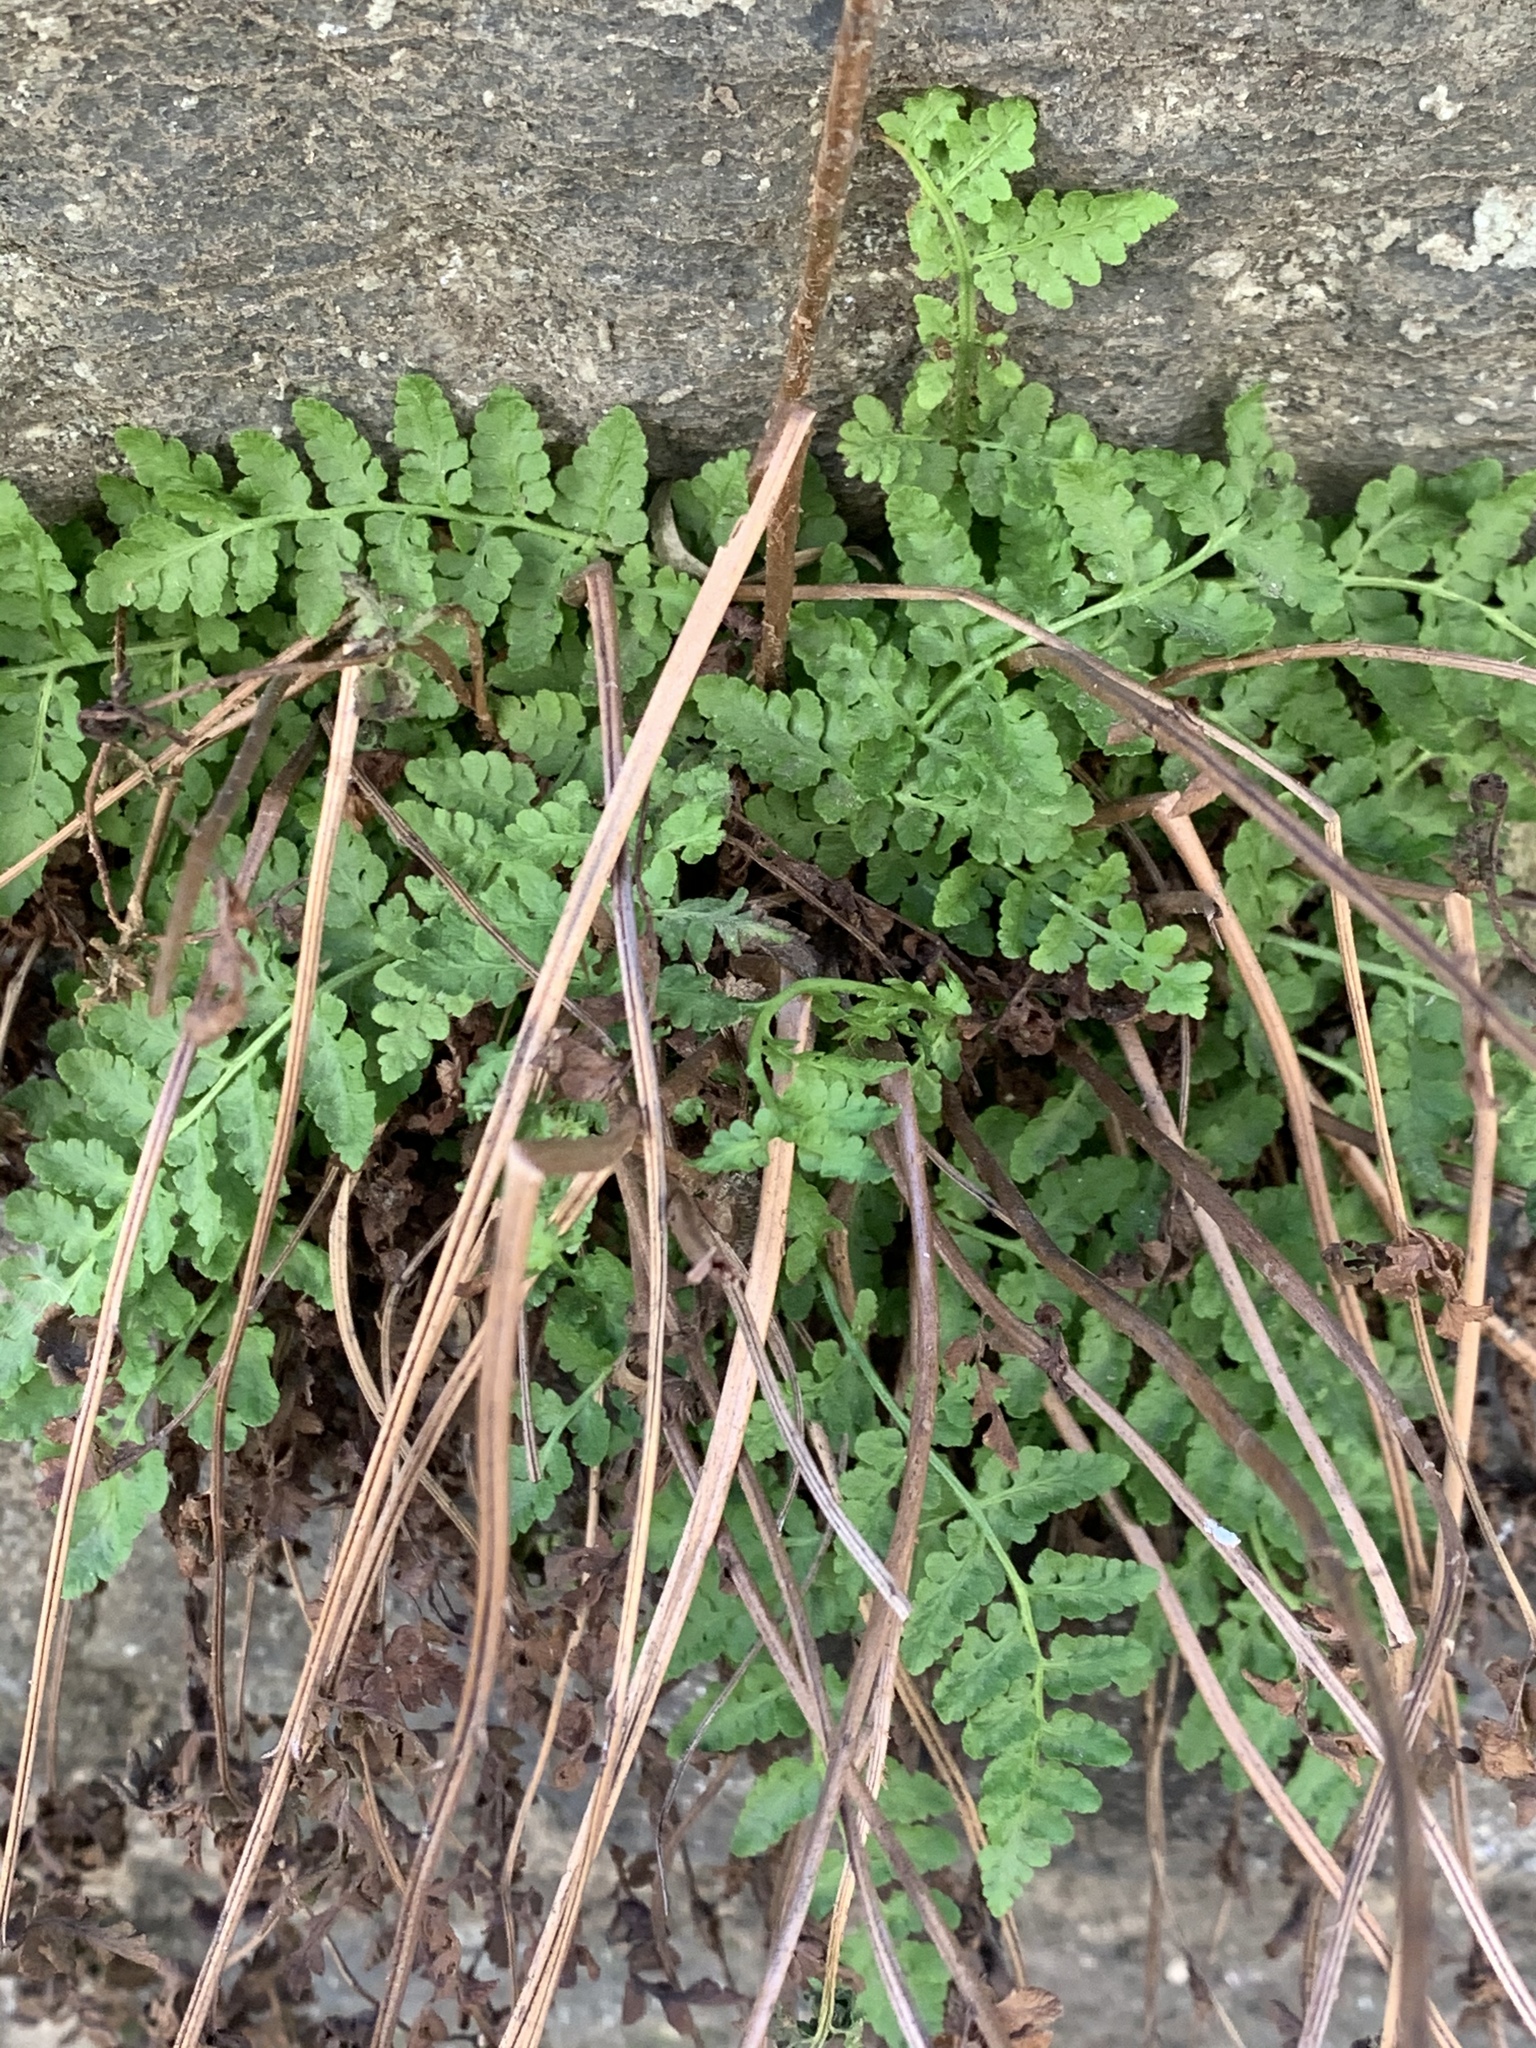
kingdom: Plantae
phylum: Tracheophyta
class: Polypodiopsida
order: Polypodiales
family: Woodsiaceae
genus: Physematium
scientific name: Physematium obtusum
